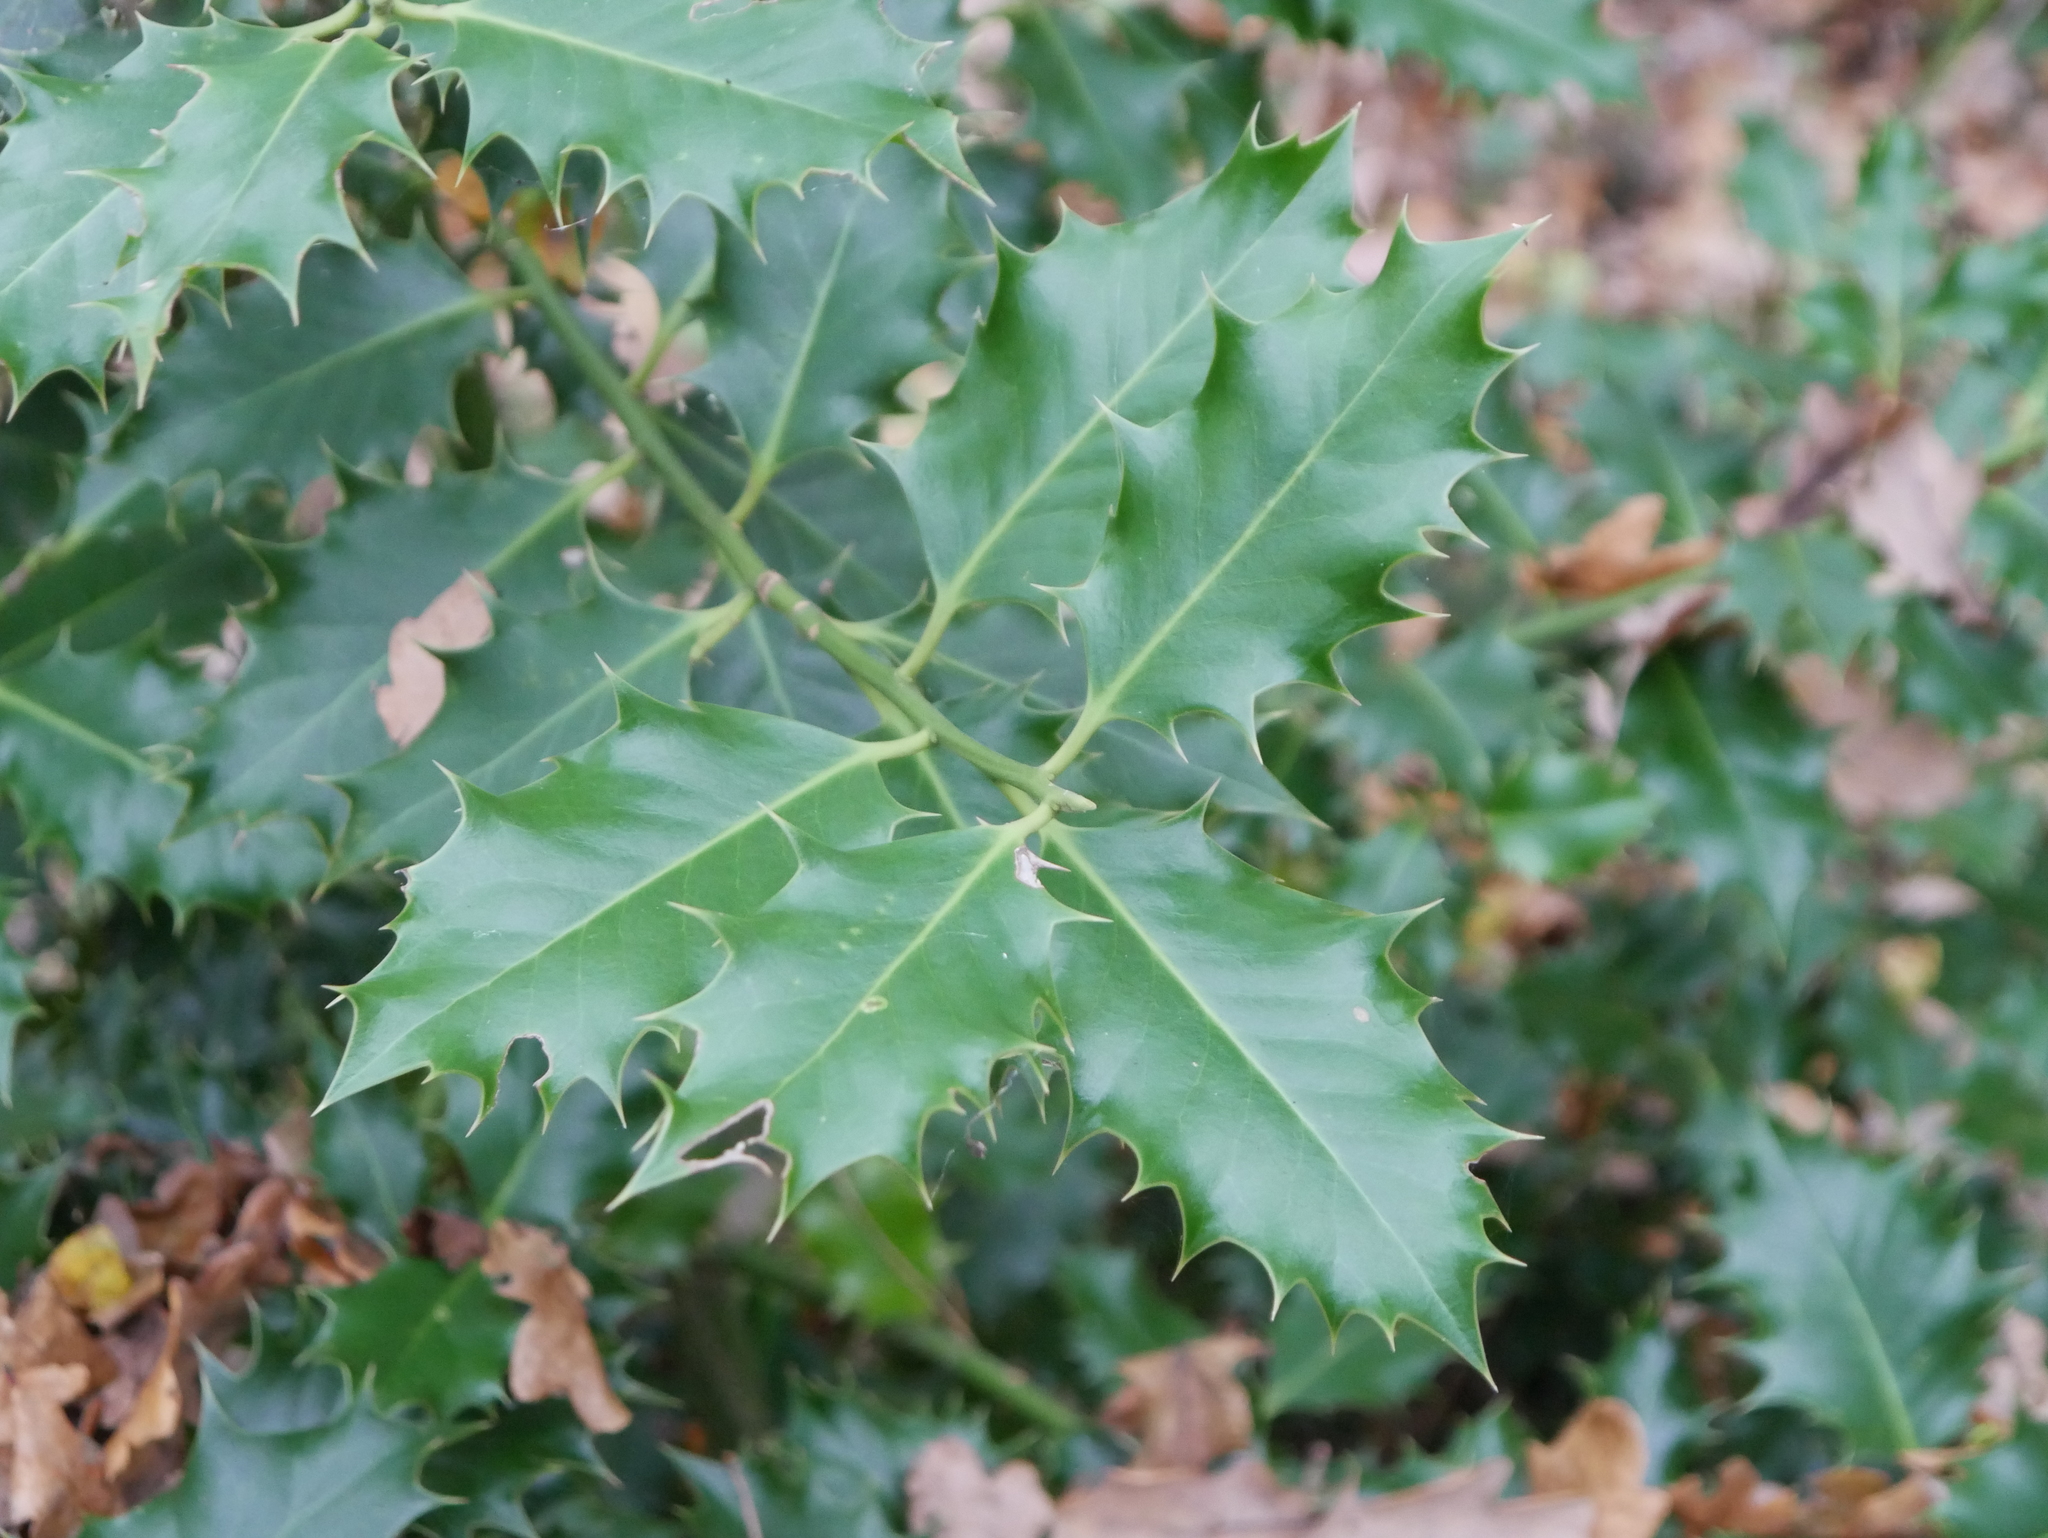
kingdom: Plantae
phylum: Tracheophyta
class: Magnoliopsida
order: Aquifoliales
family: Aquifoliaceae
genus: Ilex
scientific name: Ilex aquifolium
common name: English holly
